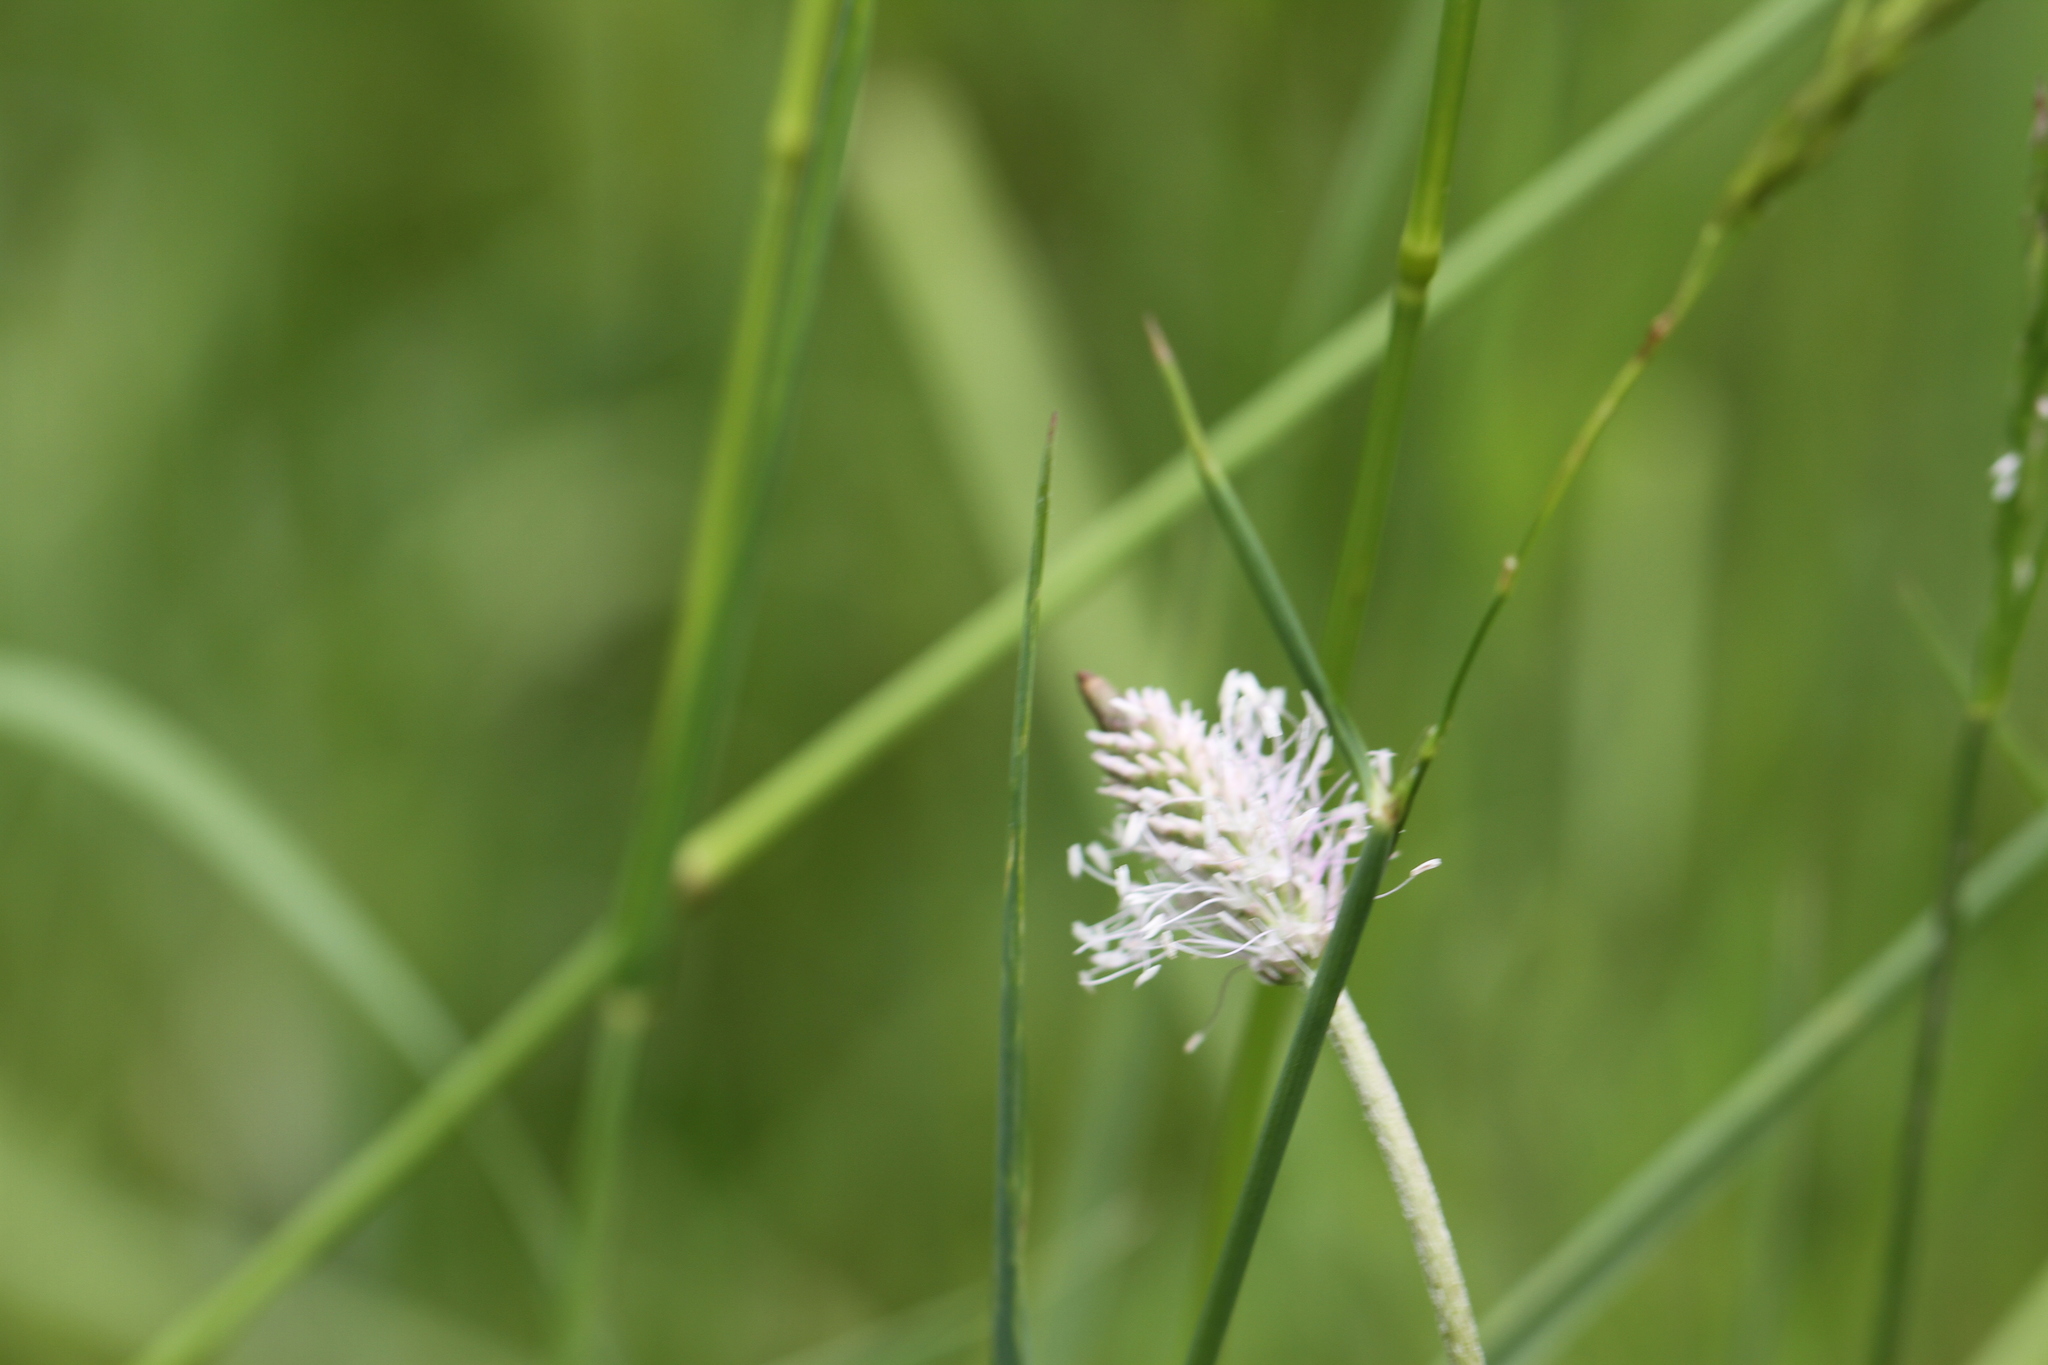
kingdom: Plantae
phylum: Tracheophyta
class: Magnoliopsida
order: Lamiales
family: Plantaginaceae
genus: Plantago
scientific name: Plantago media
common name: Hoary plantain
